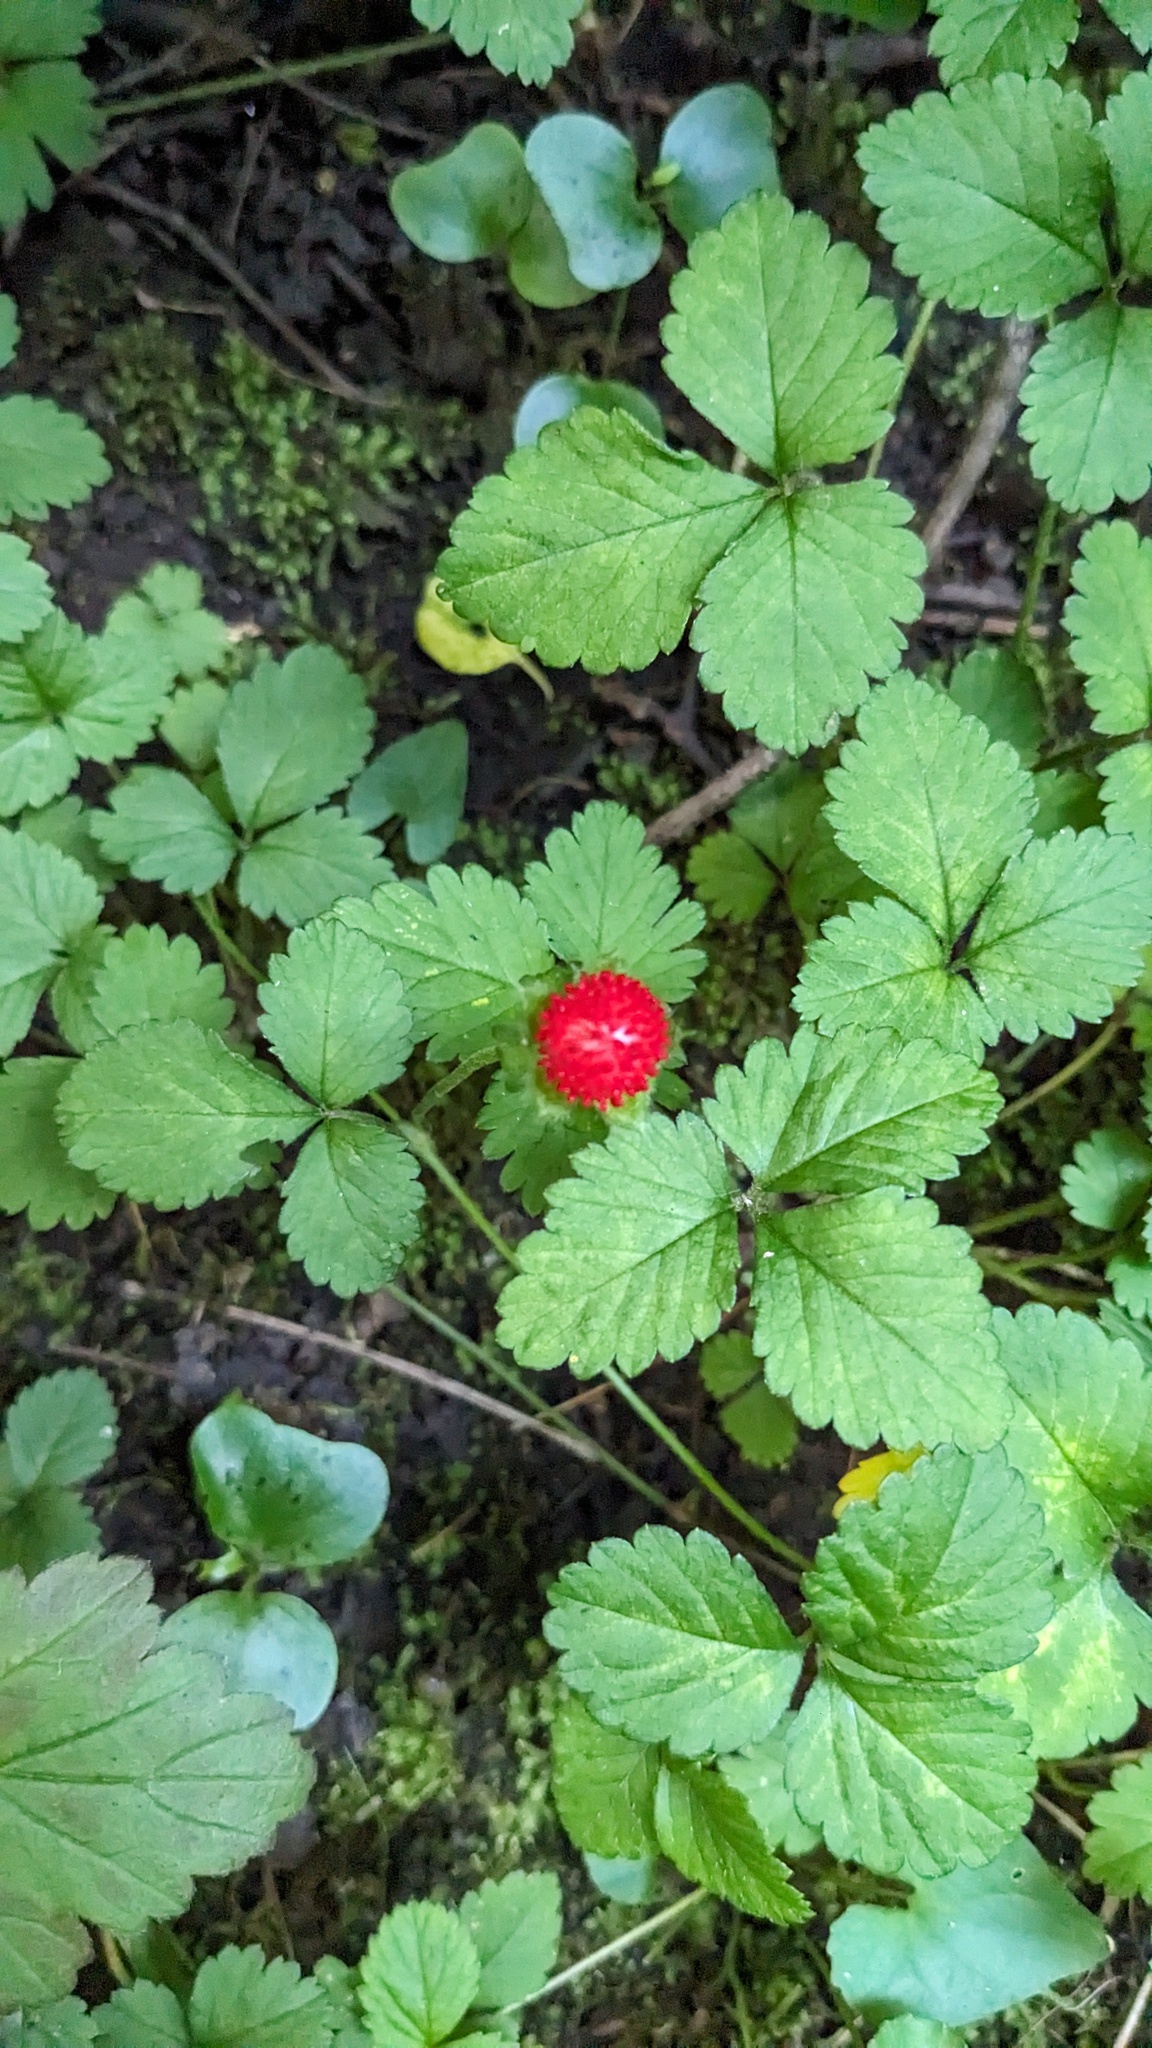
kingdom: Plantae
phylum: Tracheophyta
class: Magnoliopsida
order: Rosales
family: Rosaceae
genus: Potentilla
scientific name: Potentilla indica
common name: Yellow-flowered strawberry
